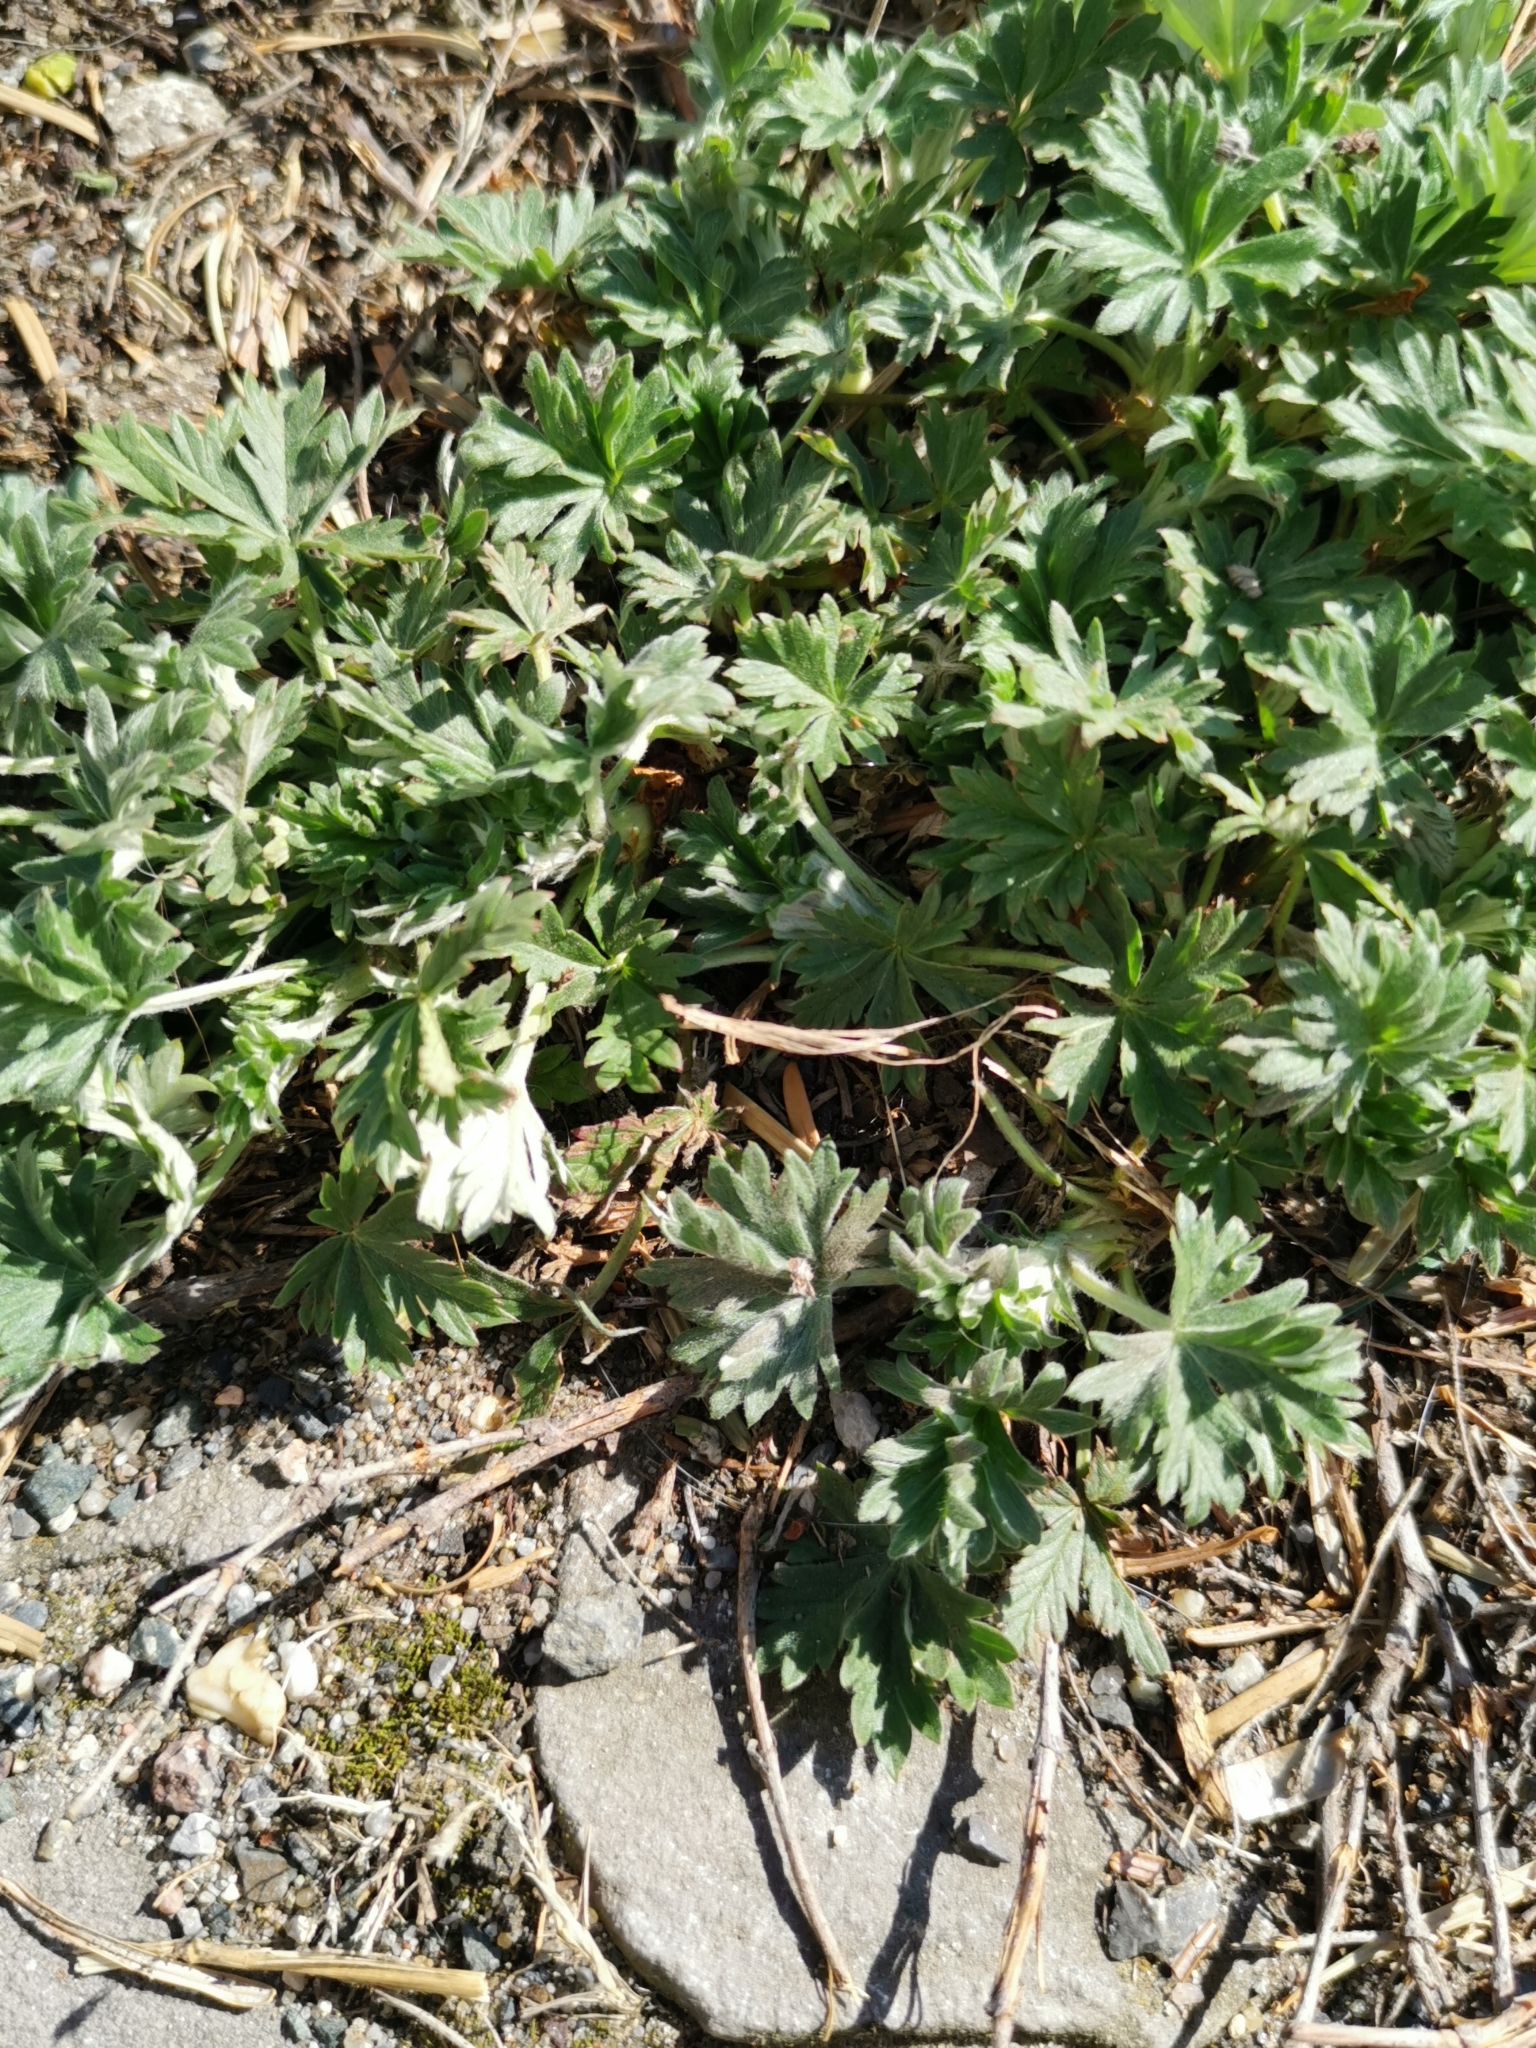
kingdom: Plantae
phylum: Tracheophyta
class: Magnoliopsida
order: Rosales
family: Rosaceae
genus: Potentilla
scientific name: Potentilla argentea
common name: Hoary cinquefoil
